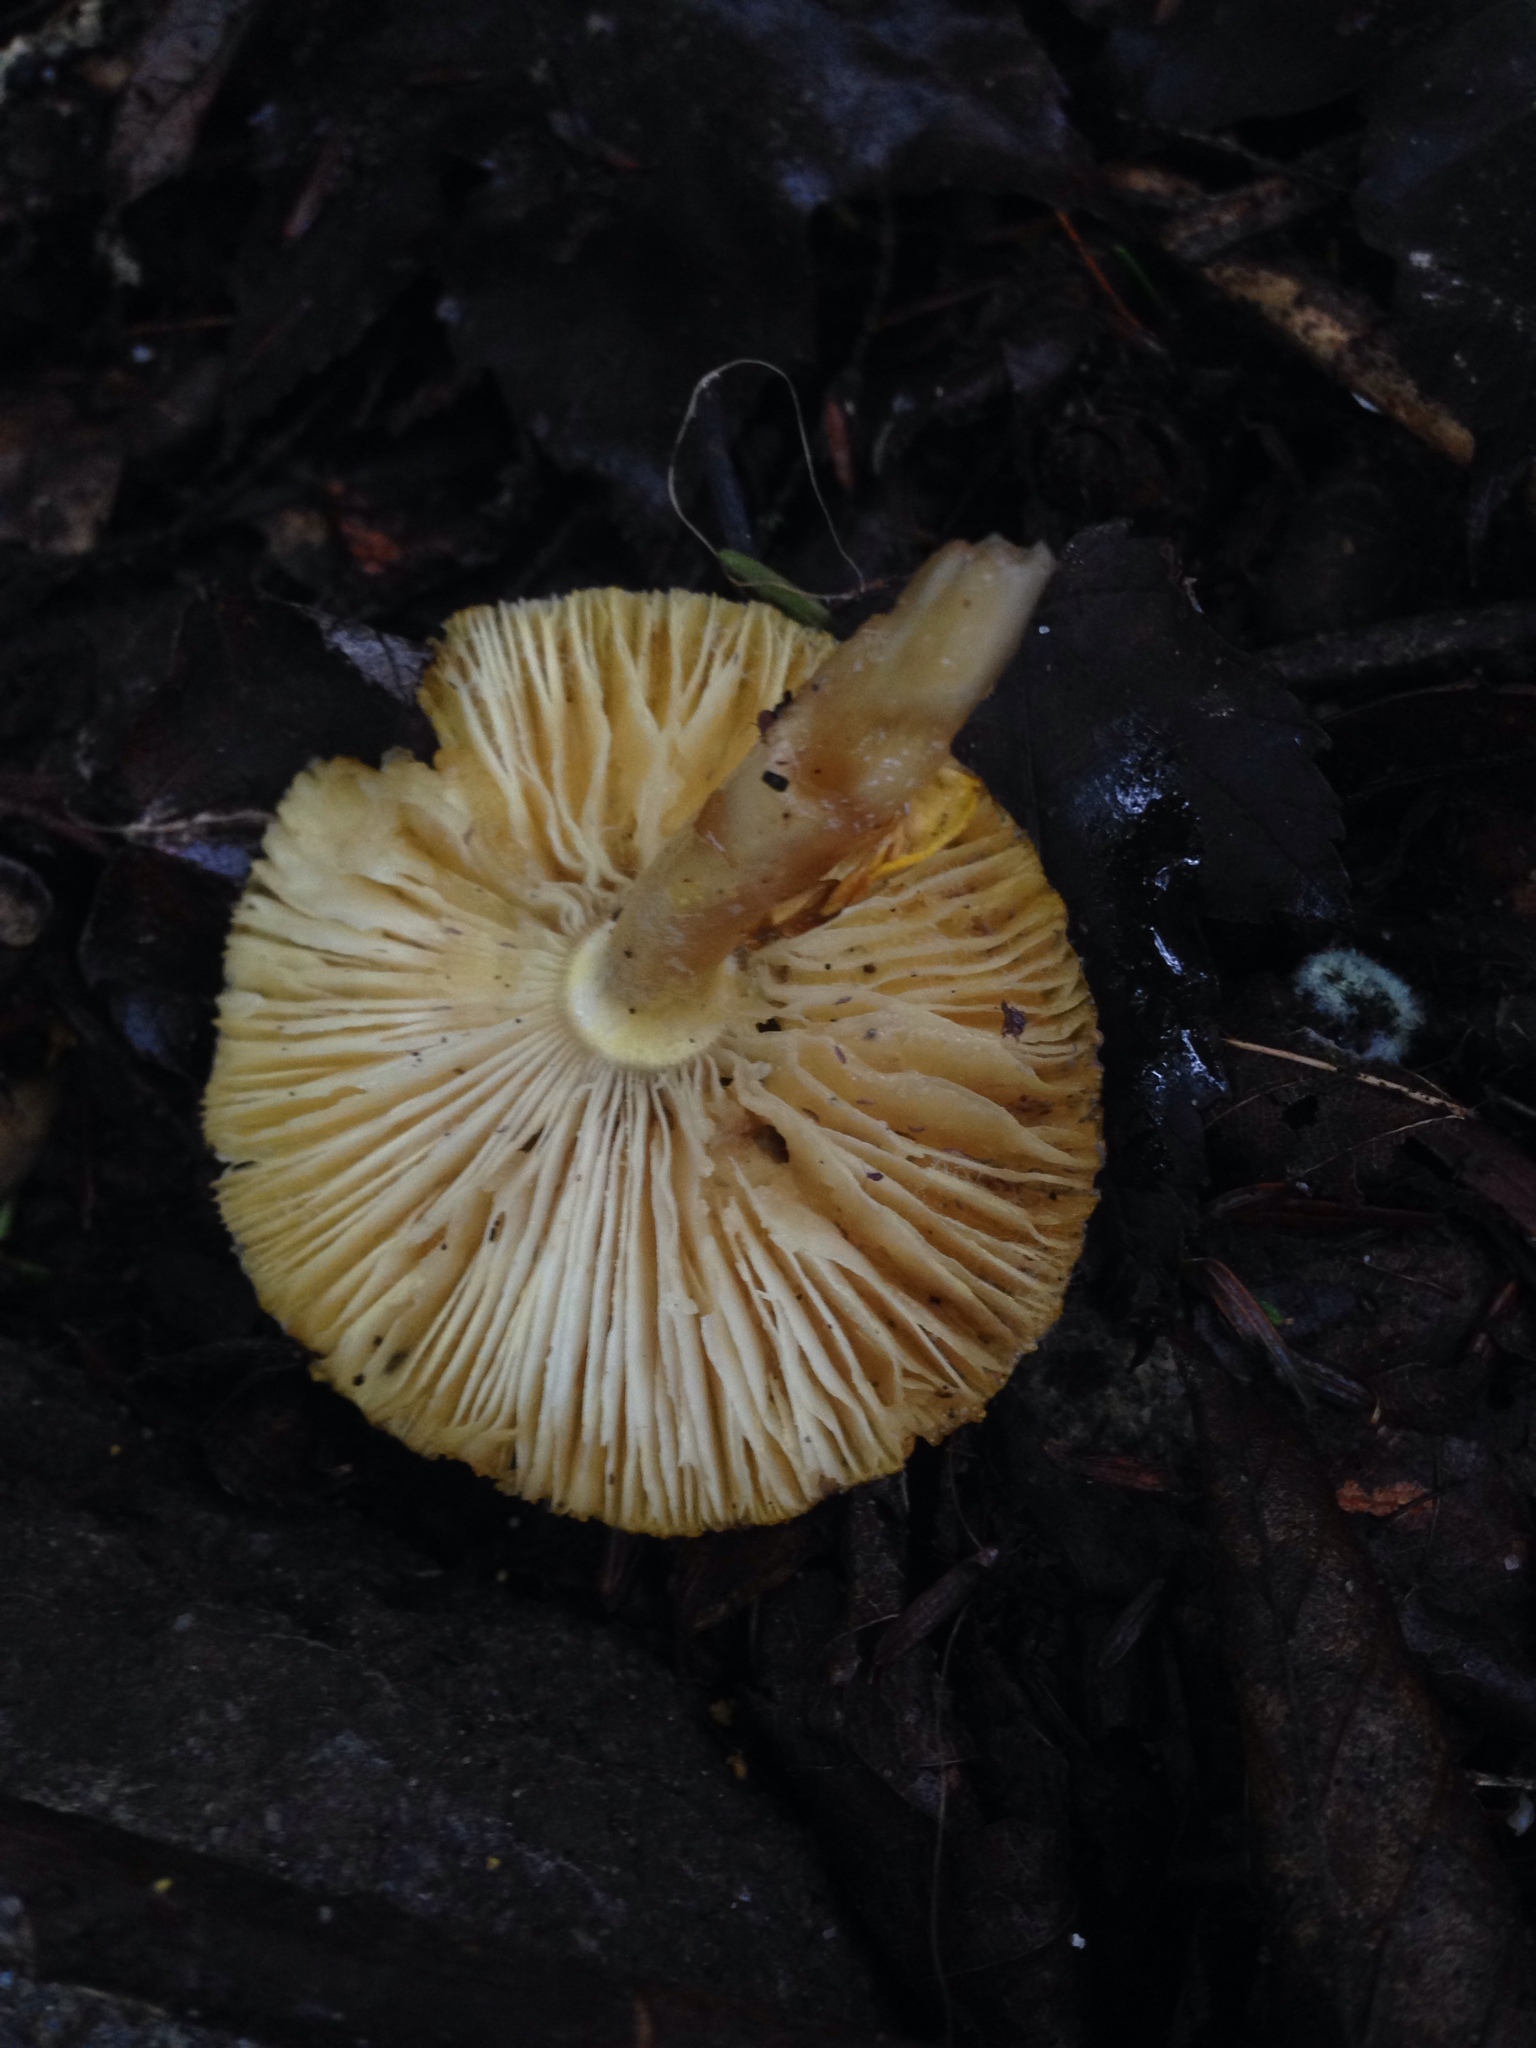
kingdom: Fungi
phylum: Basidiomycota
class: Agaricomycetes
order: Agaricales
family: Amanitaceae
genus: Amanita
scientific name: Amanita flavoconia
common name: Yellow patches
